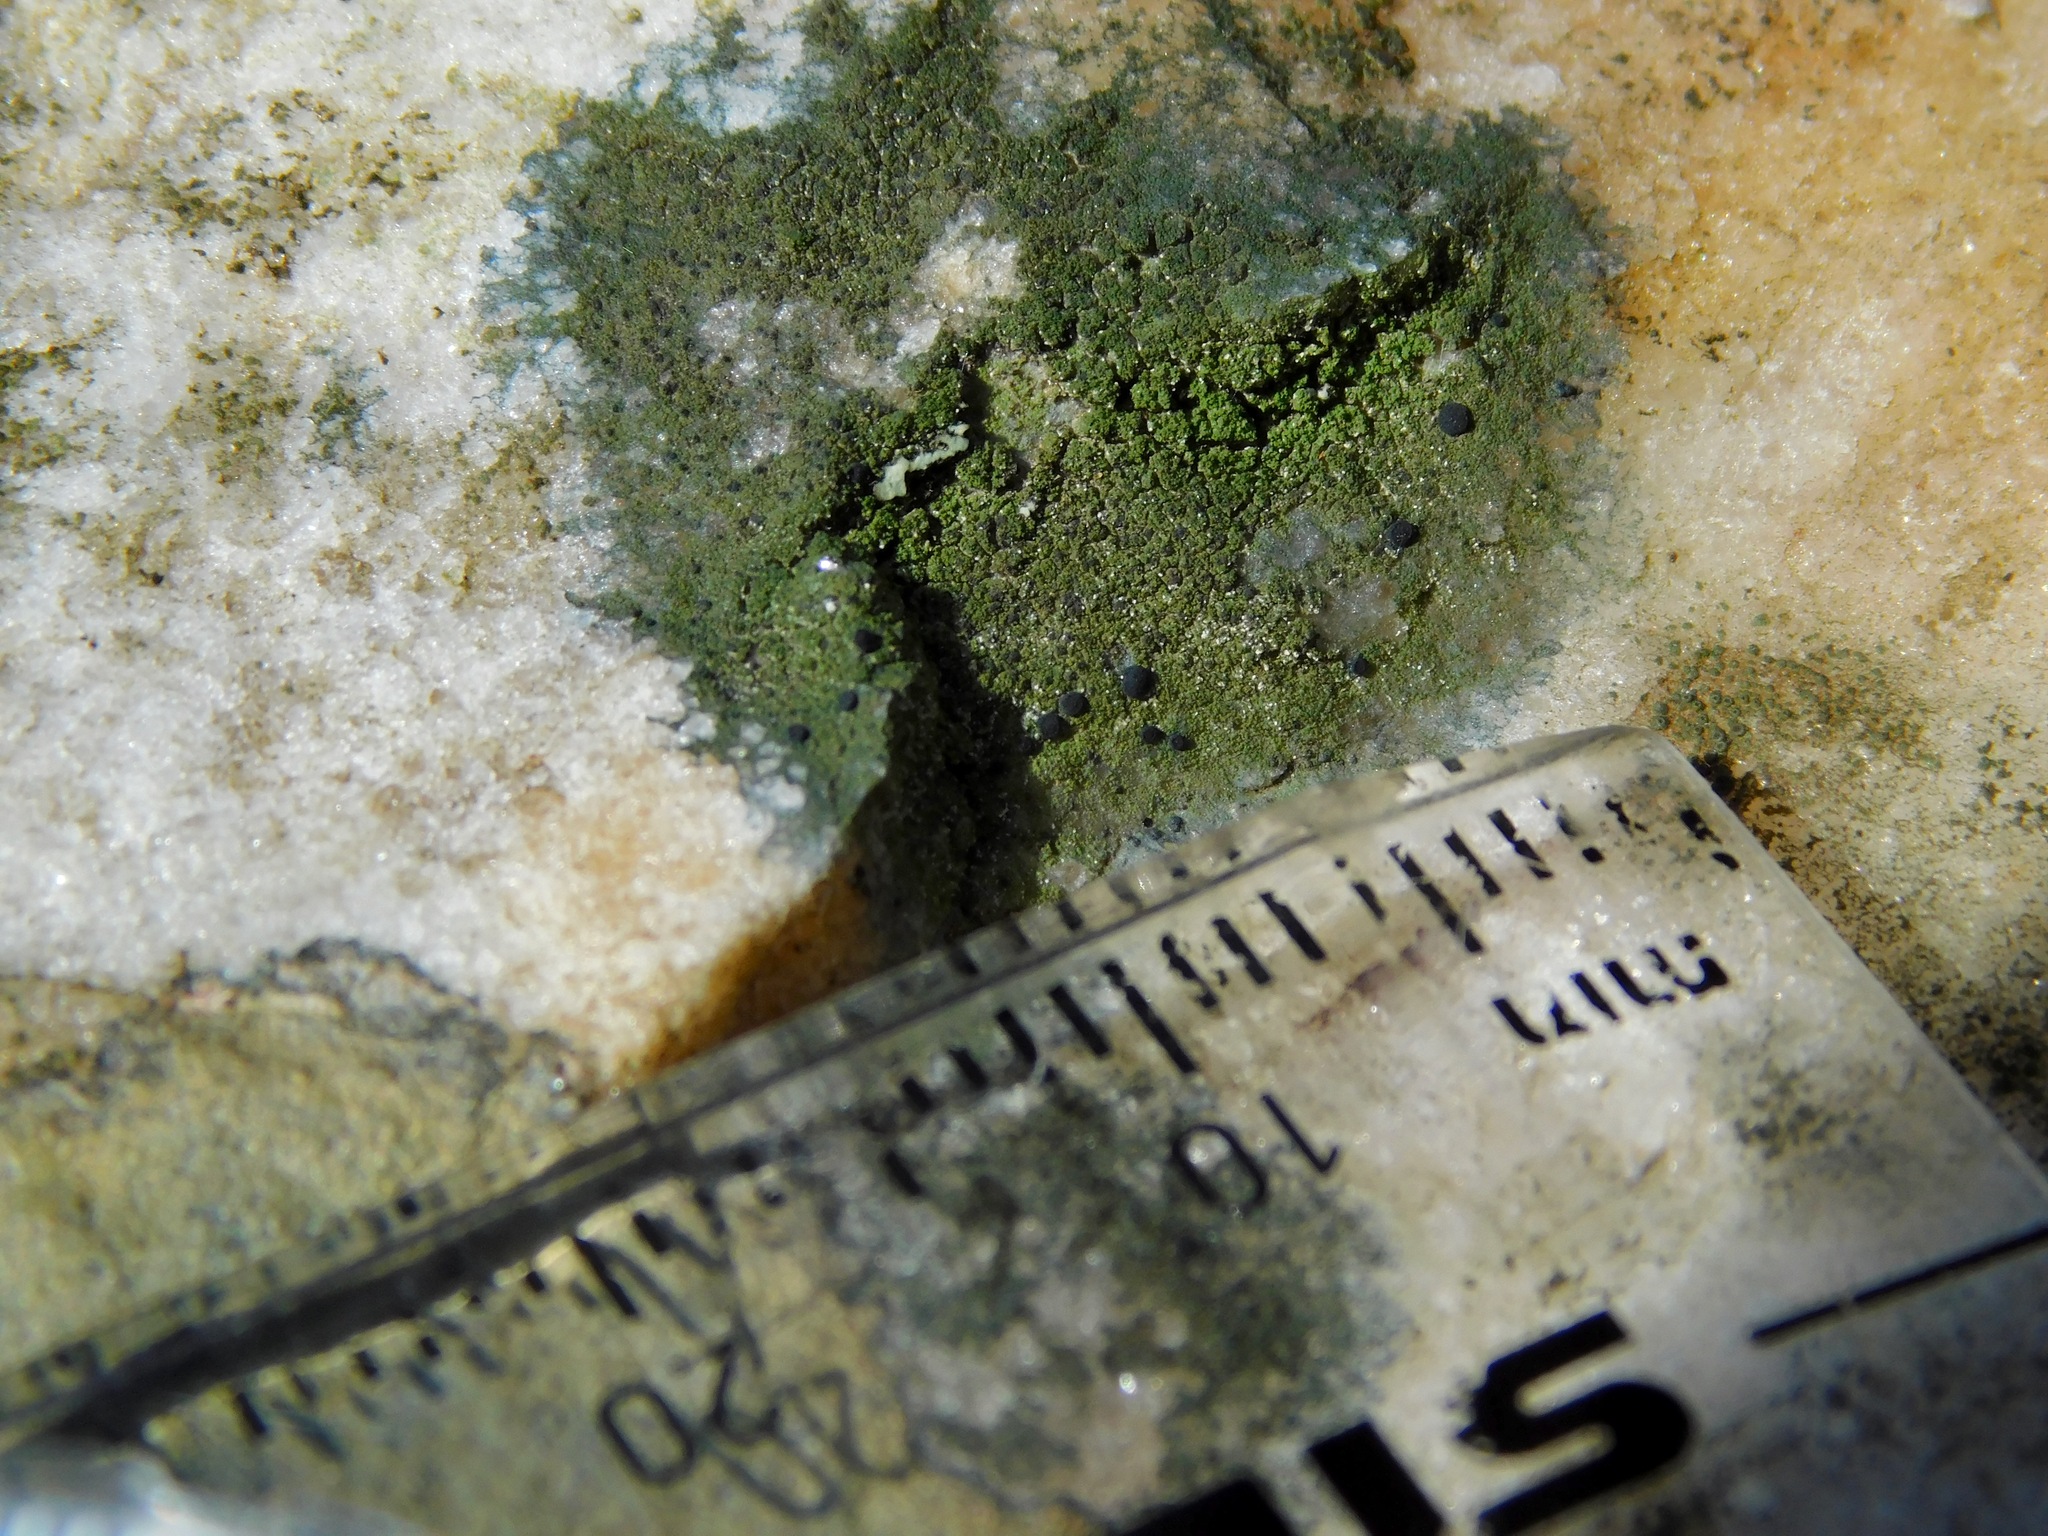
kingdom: Fungi
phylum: Ascomycota
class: Lecanoromycetes
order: Lecanorales
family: Scoliciosporaceae
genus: Scoliciosporum
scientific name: Scoliciosporum umbrinum
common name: Umber dot lichen
